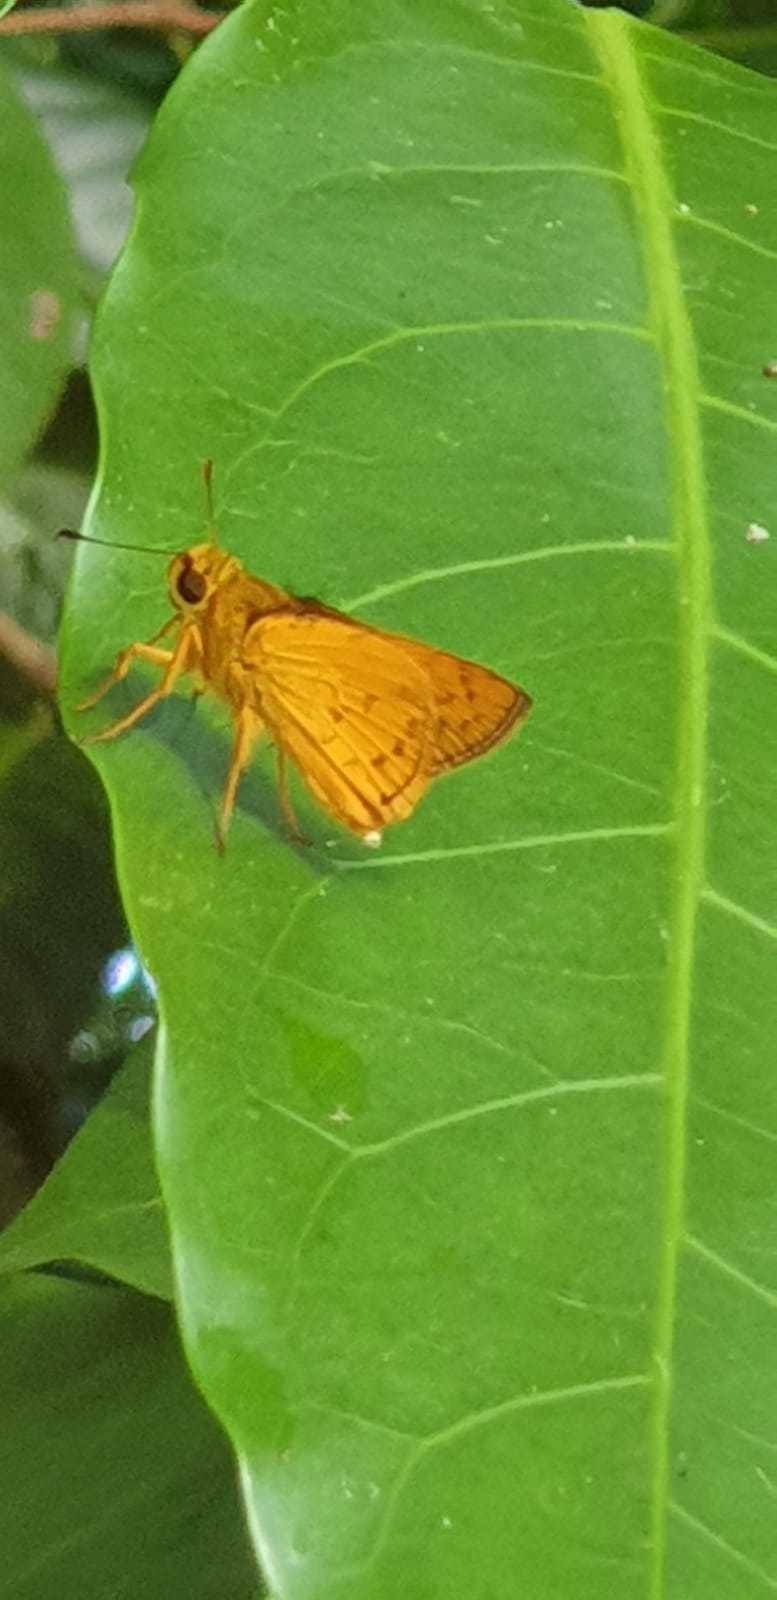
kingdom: Animalia
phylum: Arthropoda
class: Insecta
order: Lepidoptera
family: Hesperiidae
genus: Telicota
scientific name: Telicota linna
